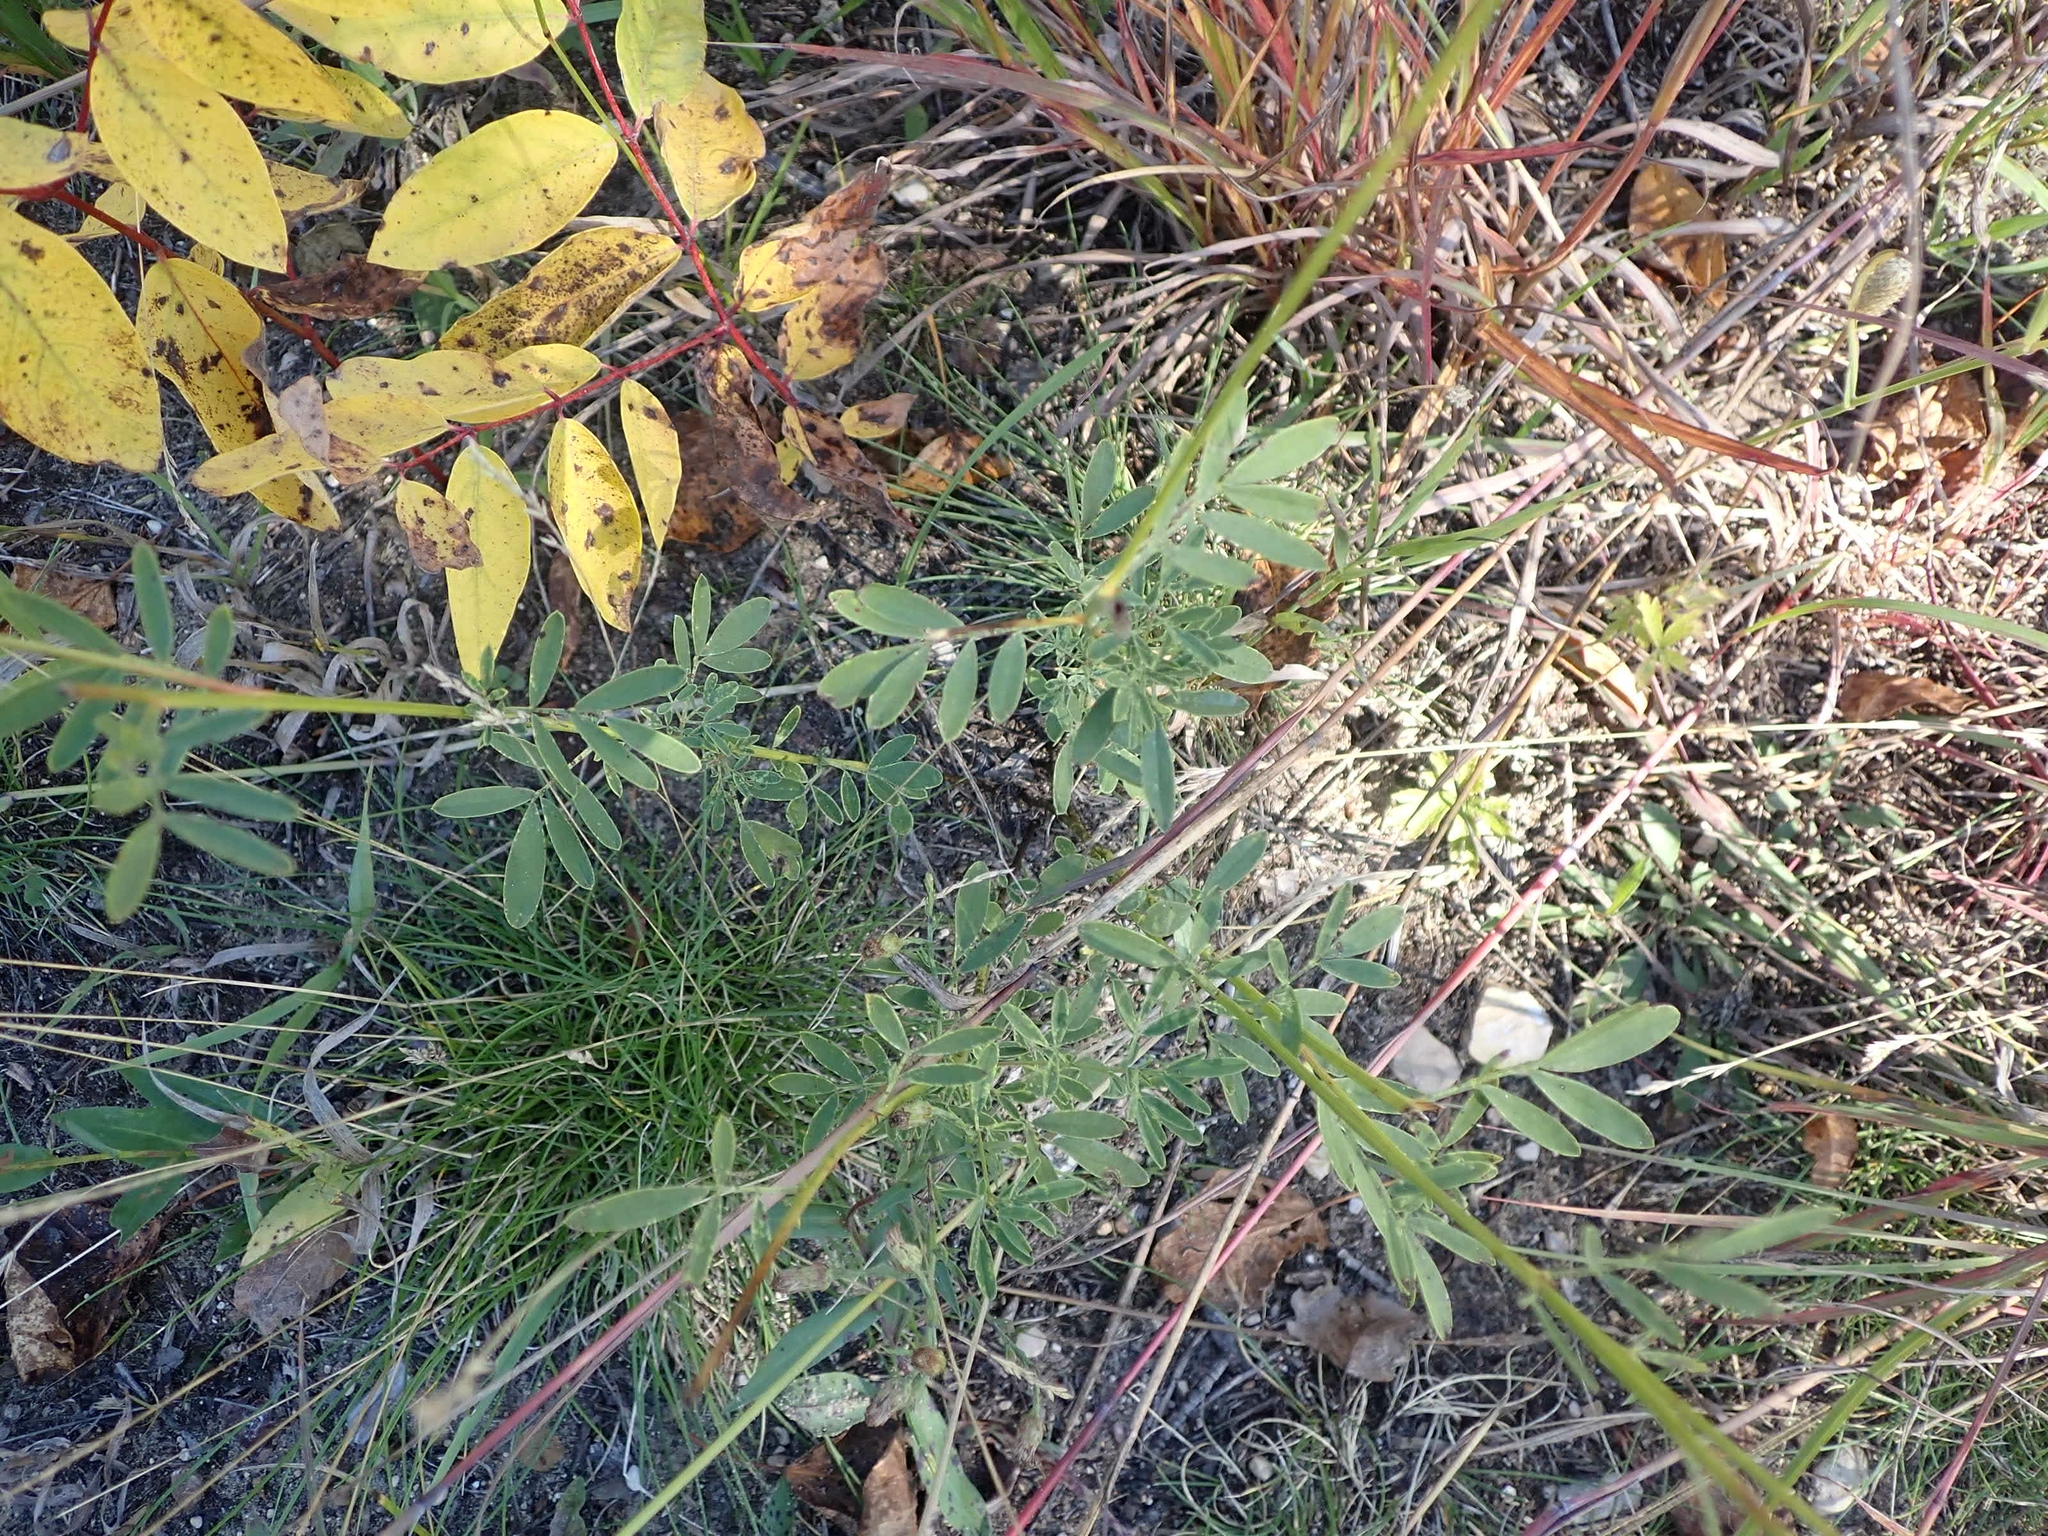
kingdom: Plantae
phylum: Tracheophyta
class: Magnoliopsida
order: Fabales
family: Fabaceae
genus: Dalea
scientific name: Dalea candida
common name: White prairie-clover
